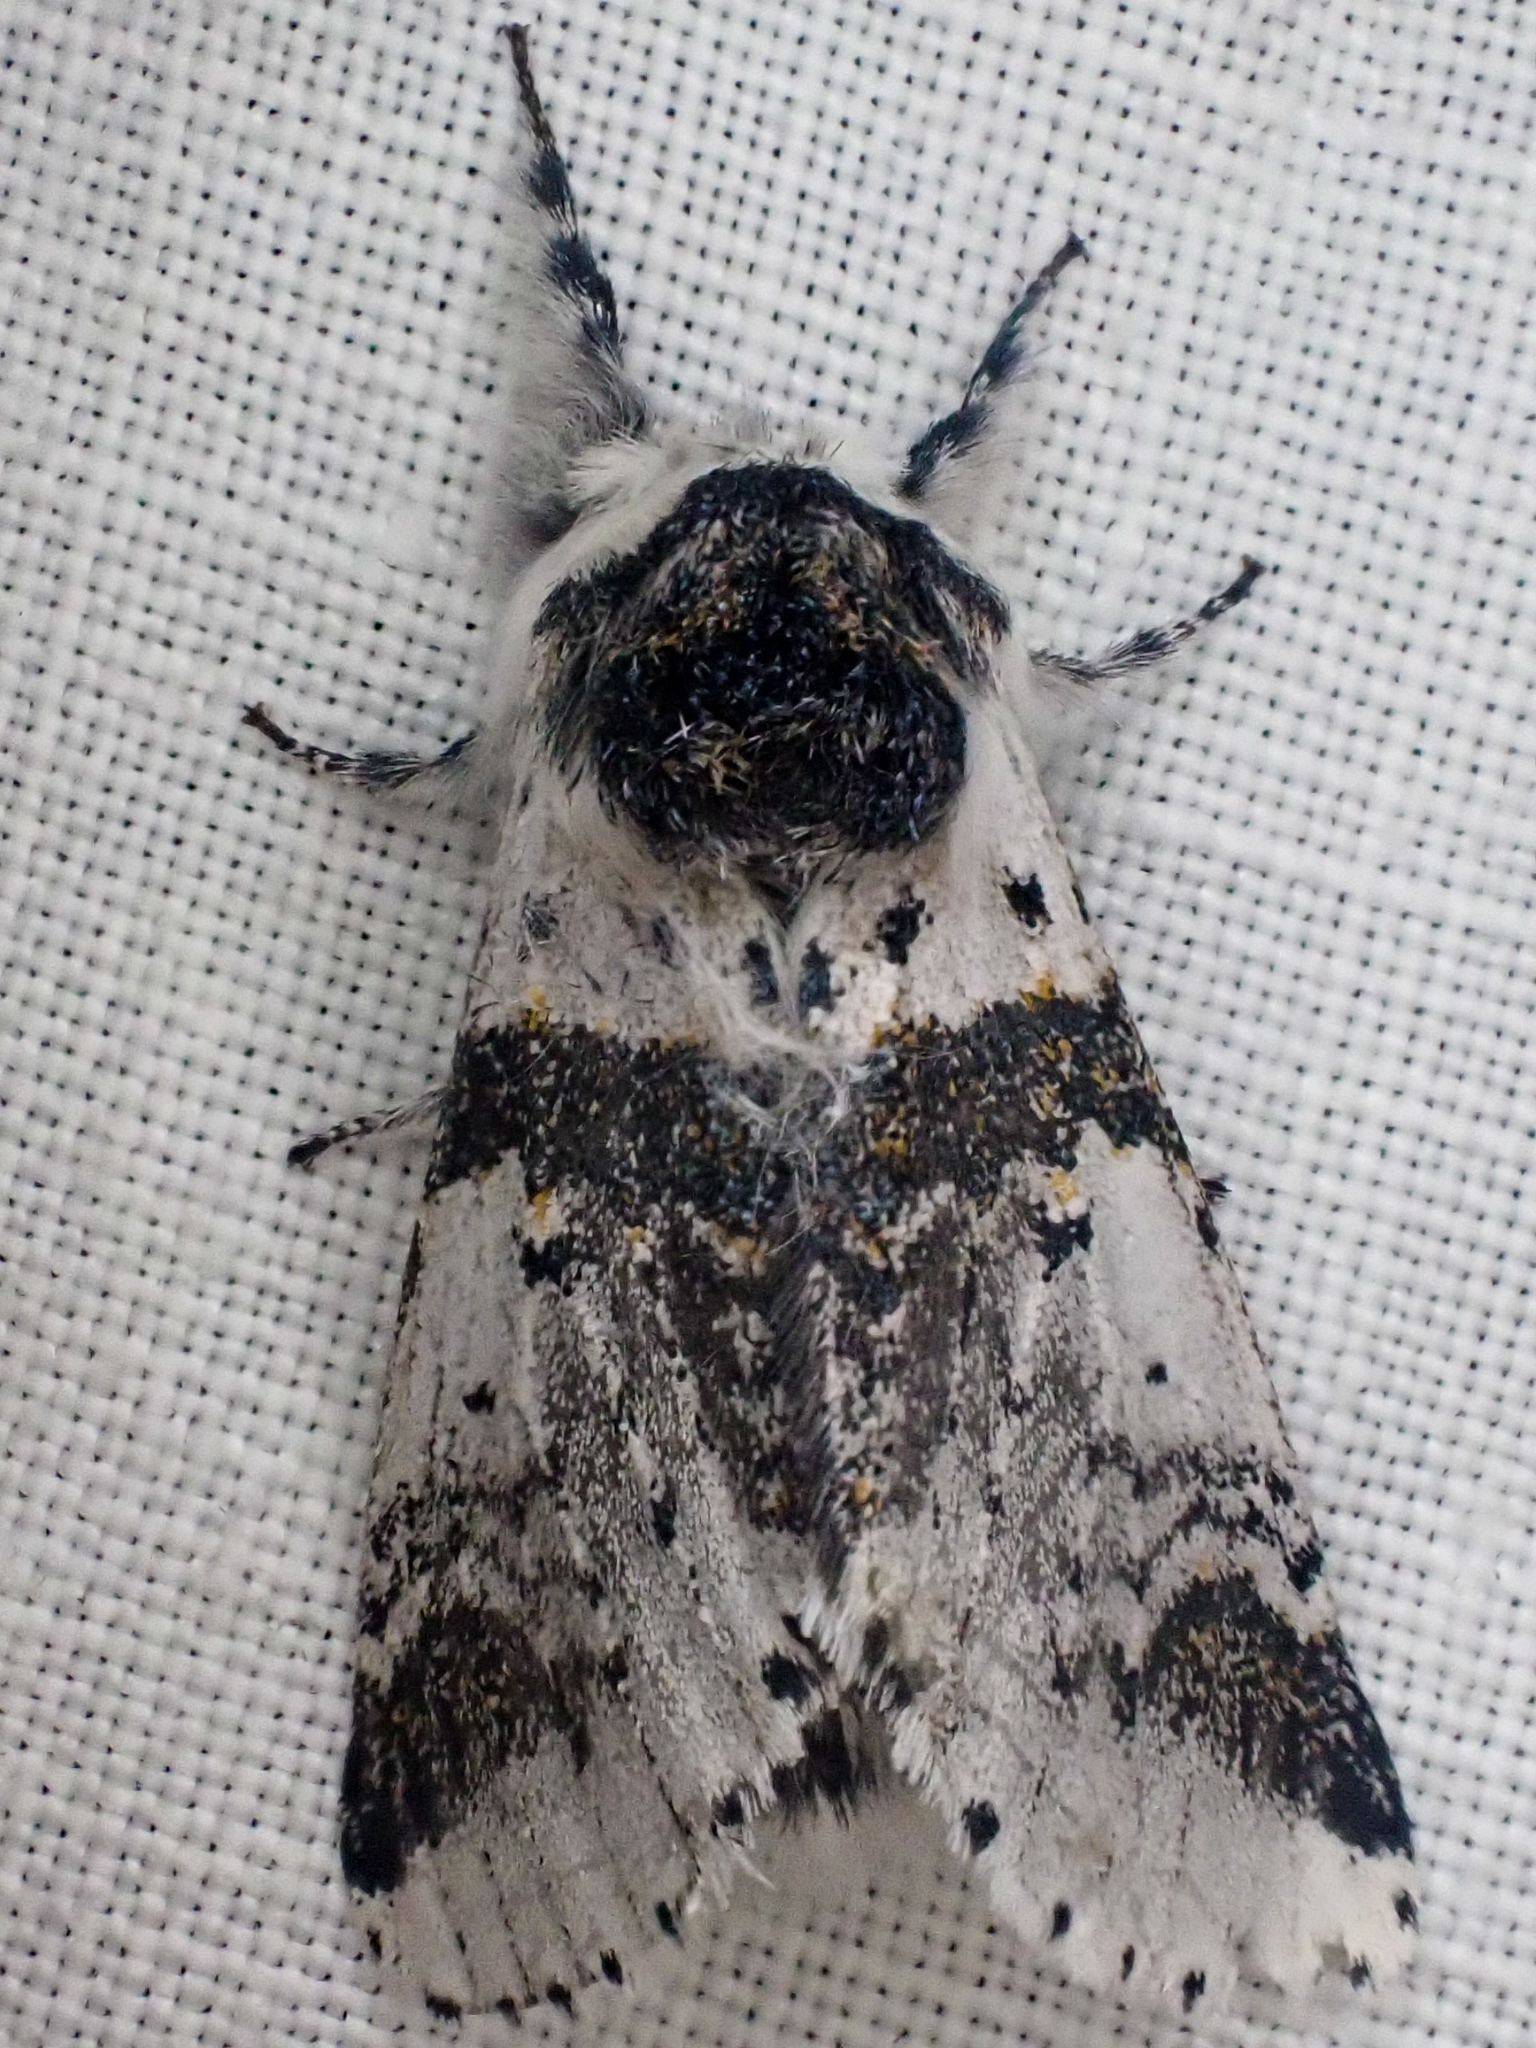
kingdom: Animalia
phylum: Arthropoda
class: Insecta
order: Lepidoptera
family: Notodontidae
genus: Furcula
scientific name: Furcula scolopendrina
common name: Zigzag furcula moth
